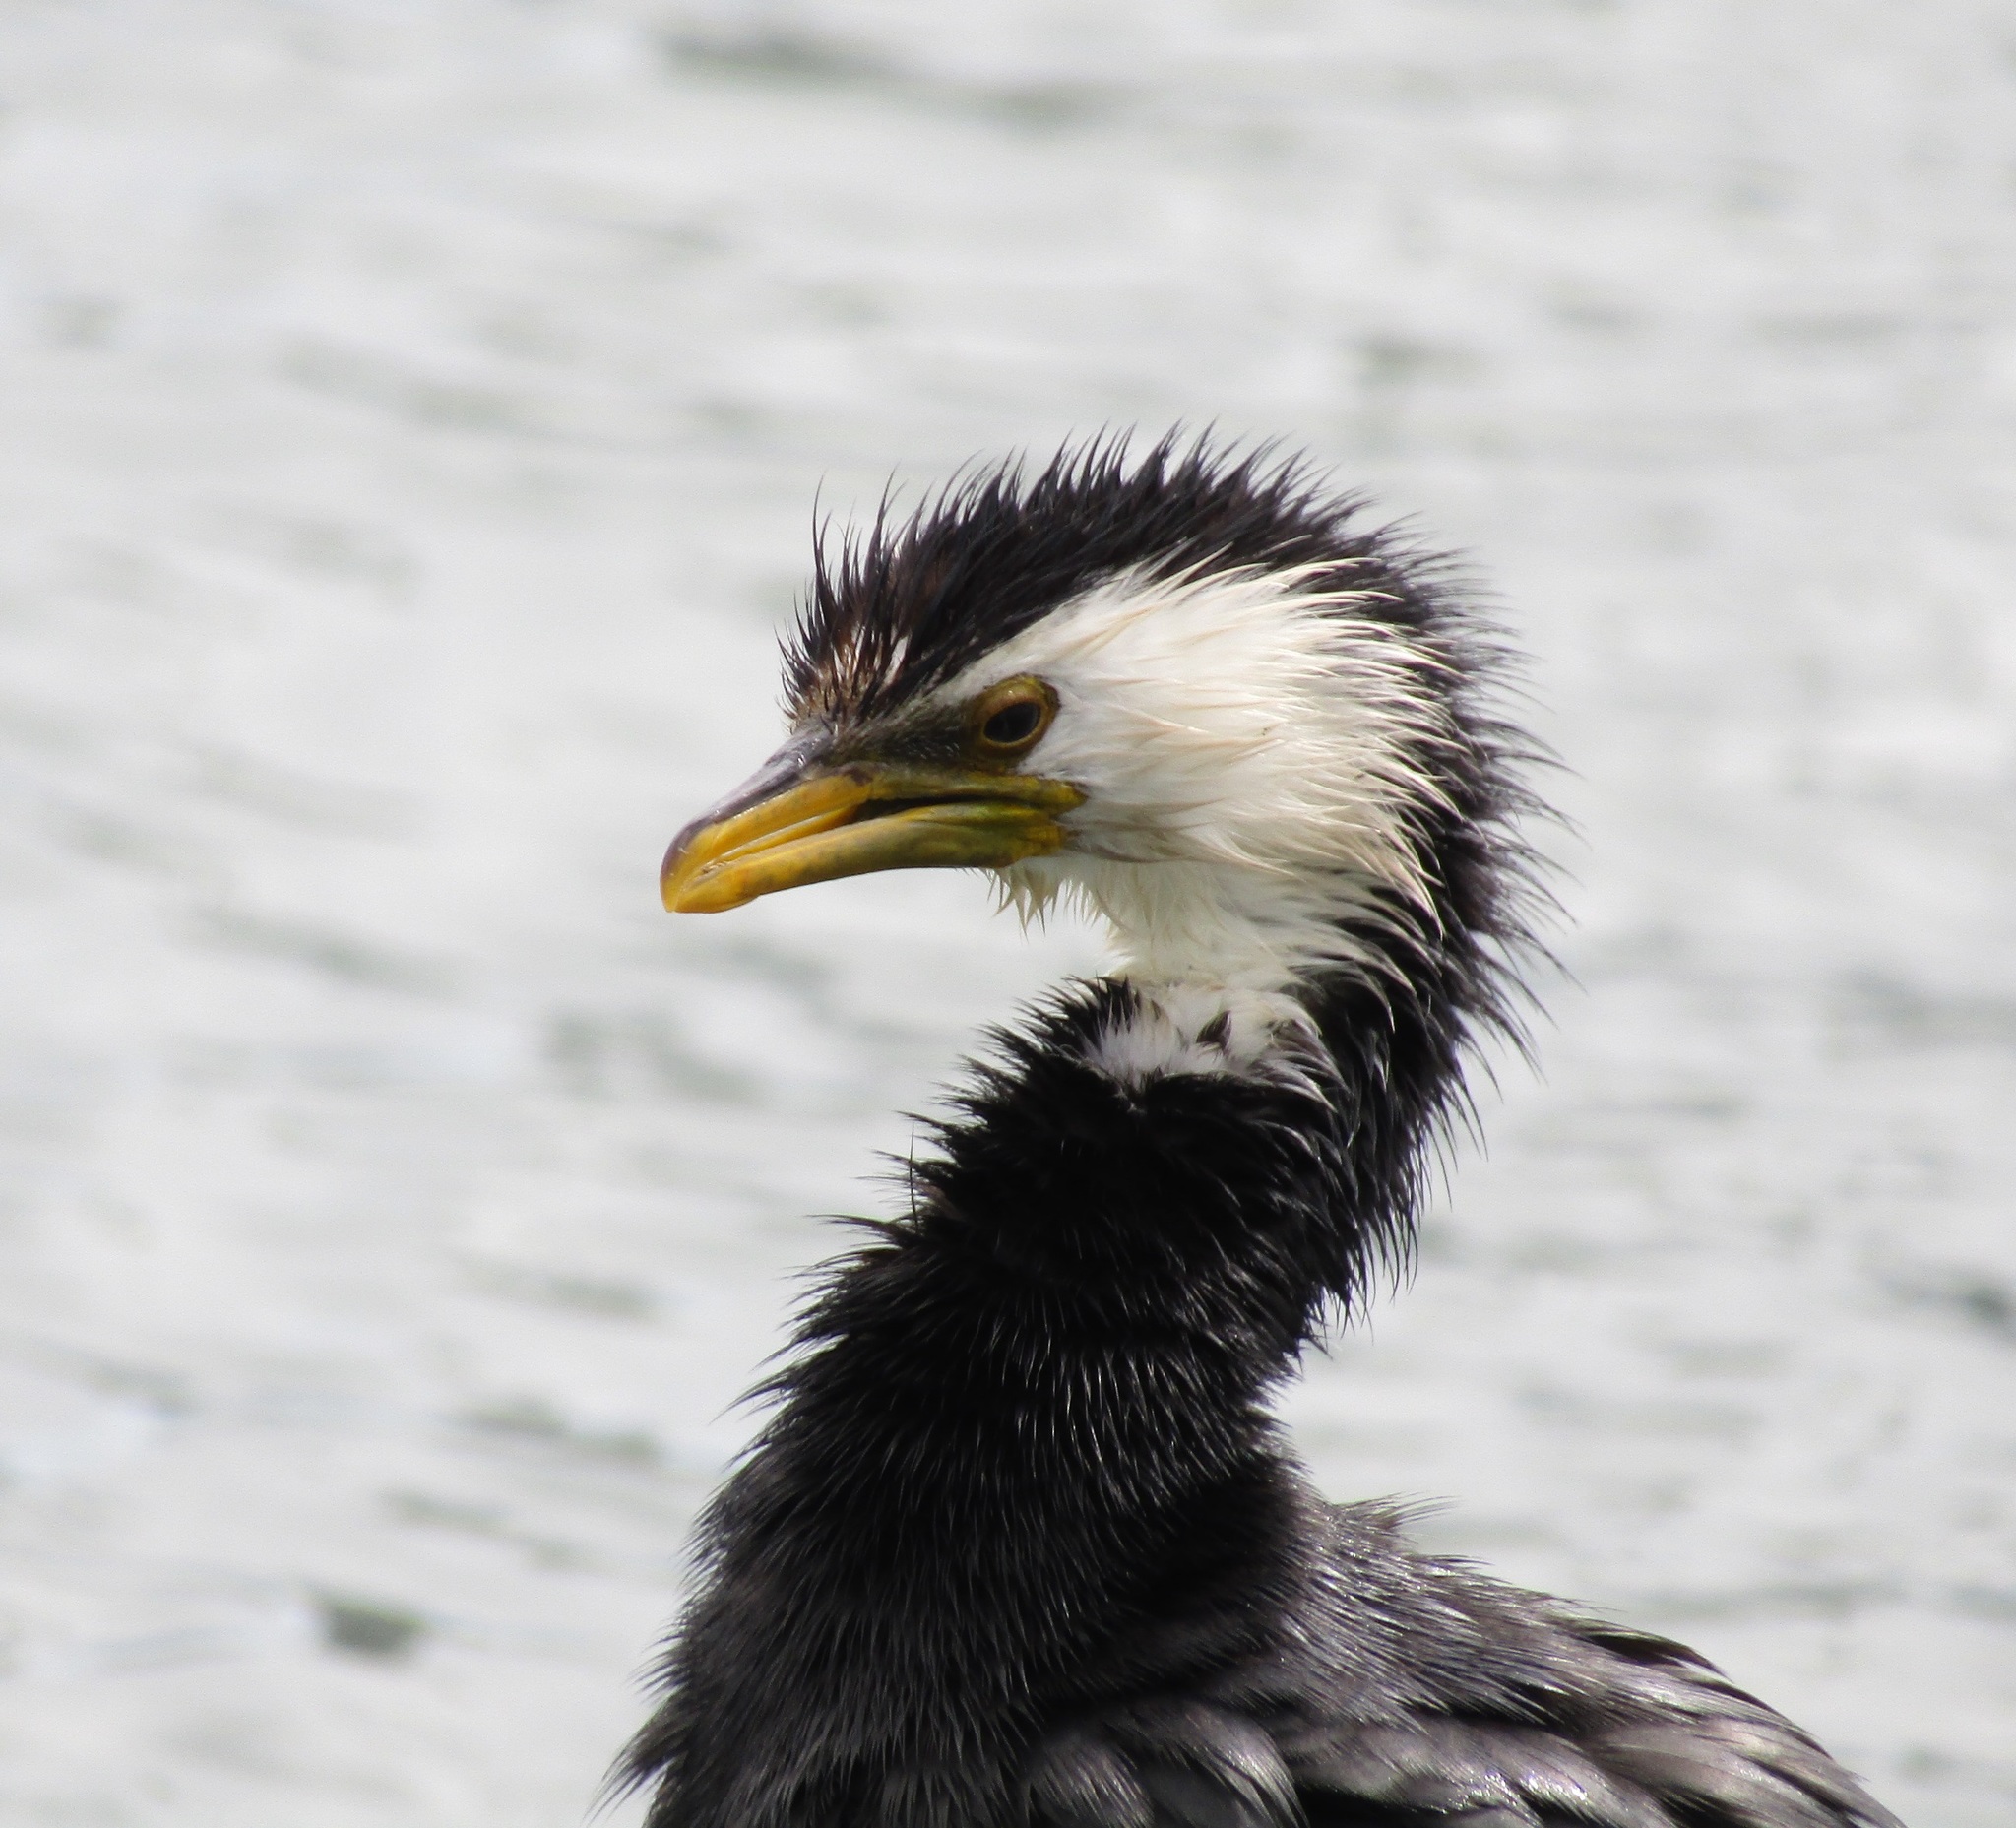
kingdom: Animalia
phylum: Chordata
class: Aves
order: Suliformes
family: Phalacrocoracidae
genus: Microcarbo
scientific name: Microcarbo melanoleucos
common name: Little pied cormorant
